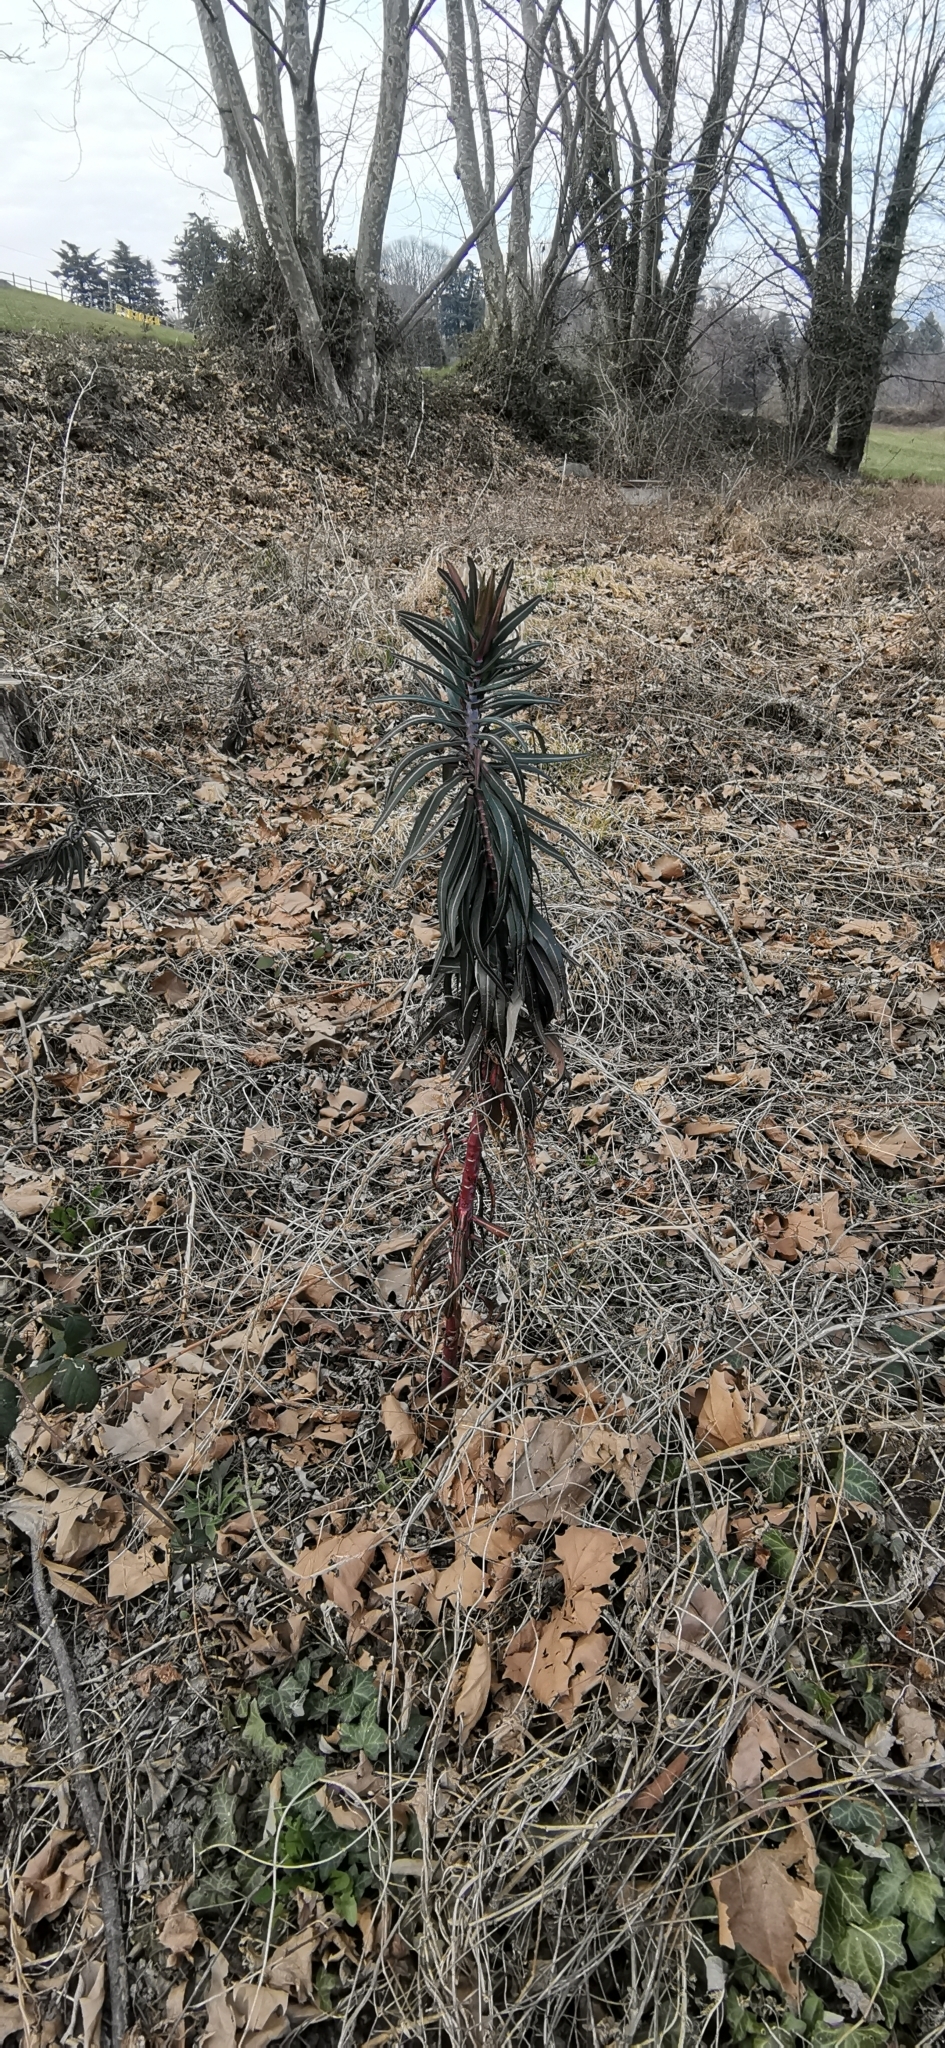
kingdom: Plantae
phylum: Tracheophyta
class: Magnoliopsida
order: Malpighiales
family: Euphorbiaceae
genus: Euphorbia
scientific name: Euphorbia lathyris
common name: Caper spurge
